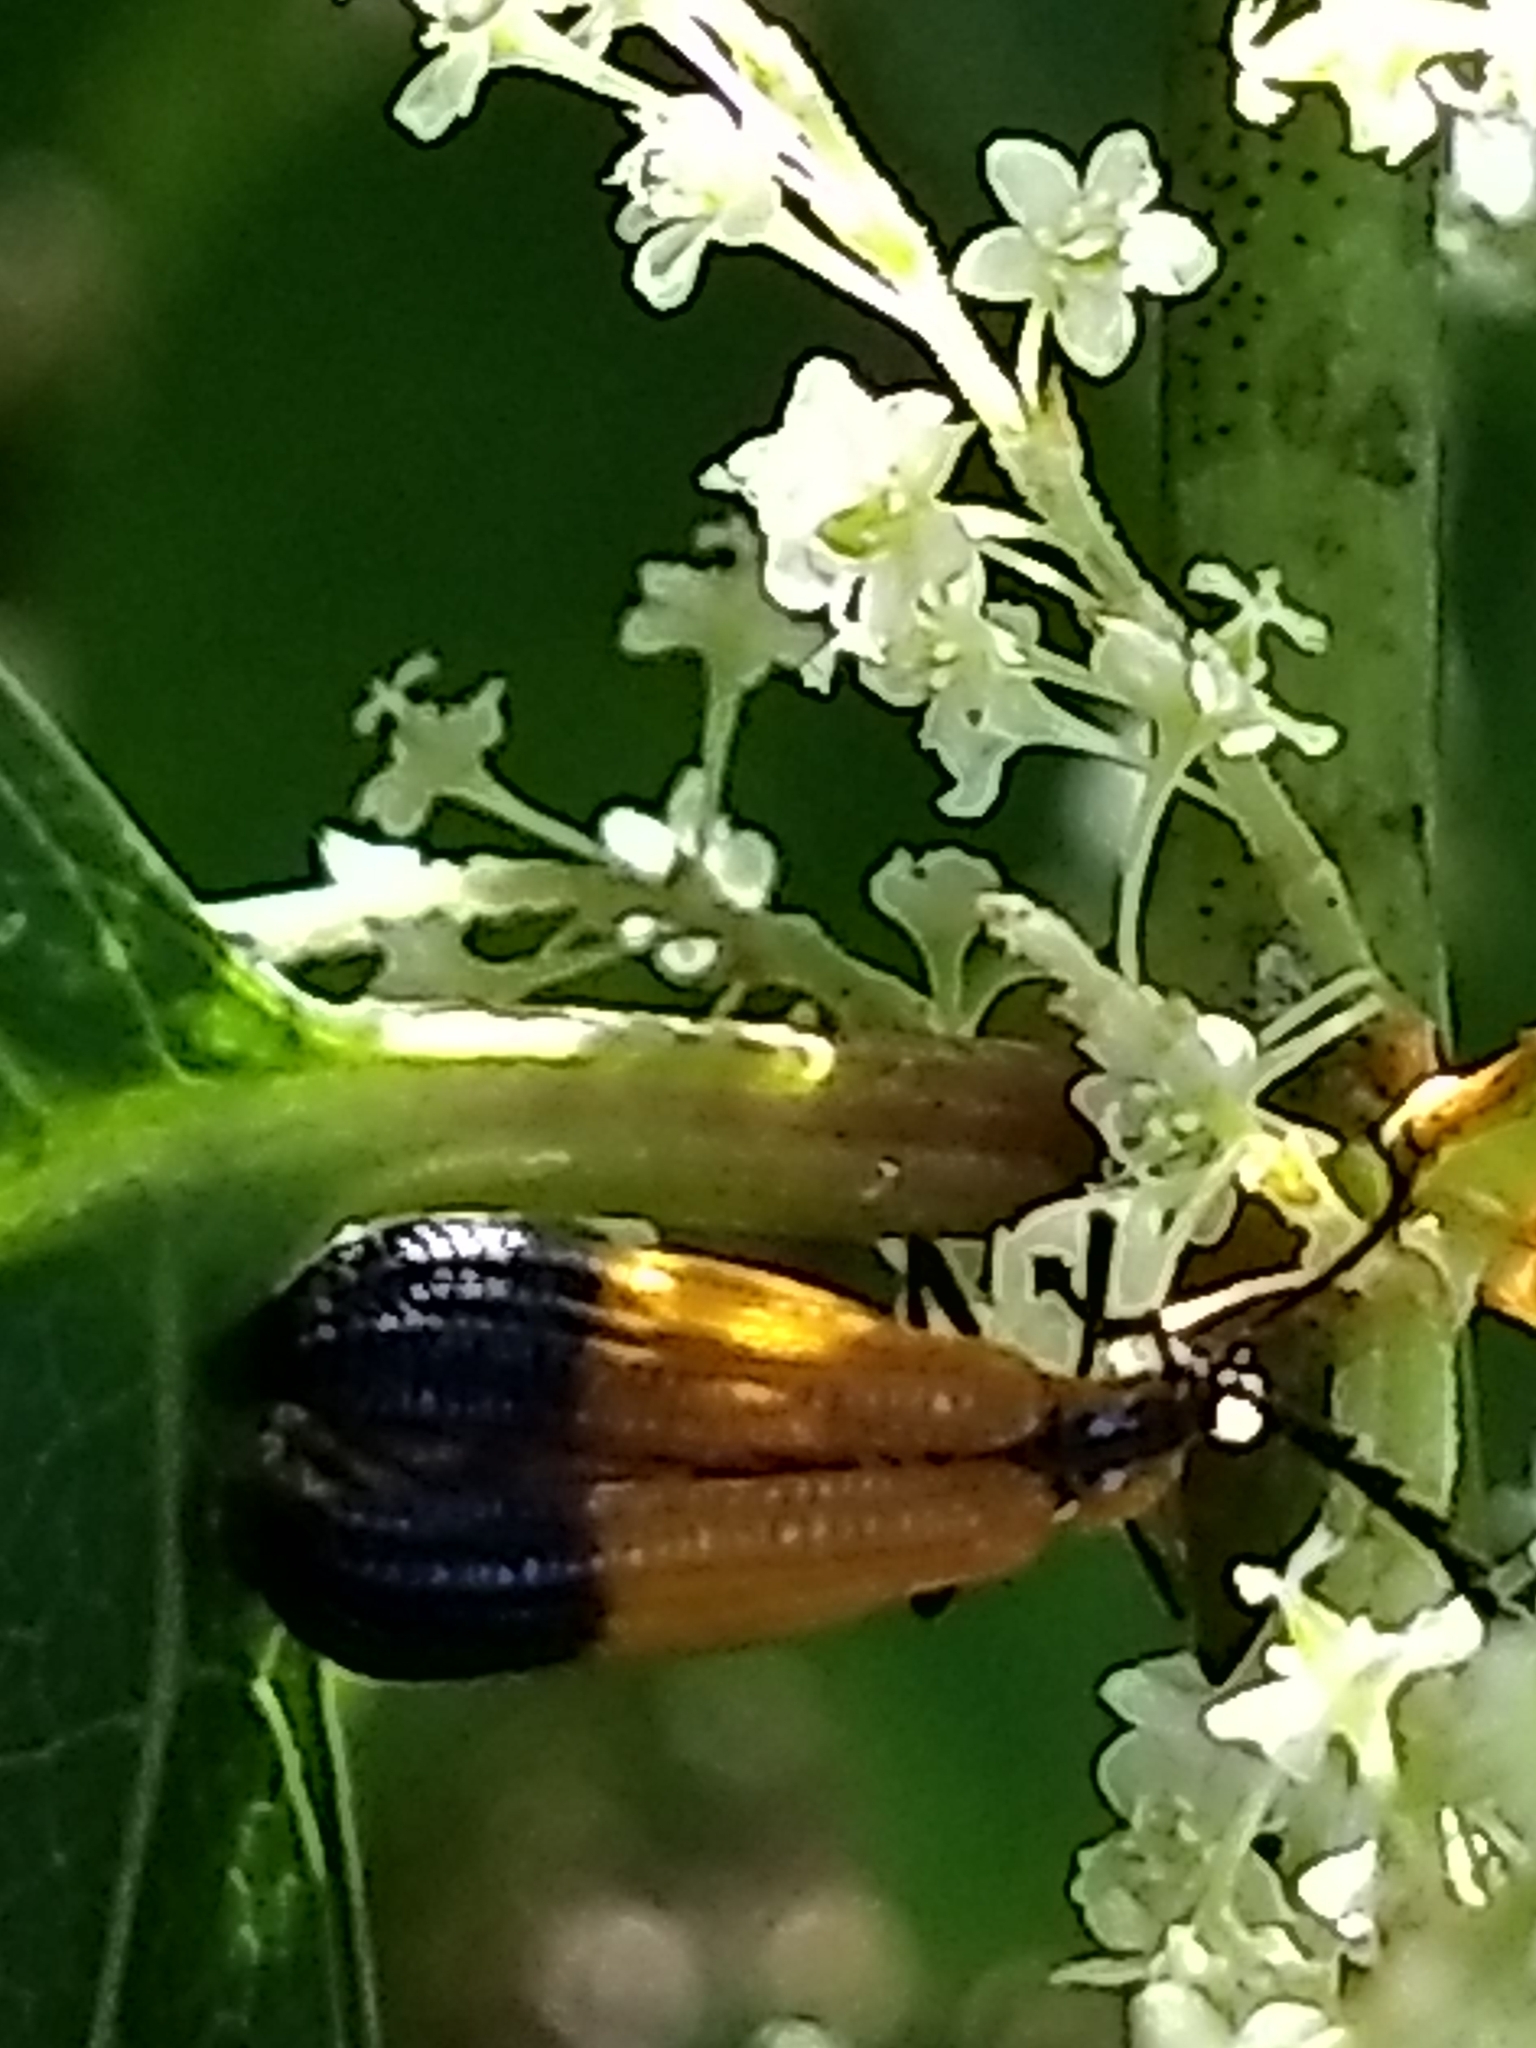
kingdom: Animalia
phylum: Arthropoda
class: Insecta
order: Coleoptera
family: Lycidae
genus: Calopteron
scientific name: Calopteron terminale
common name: End band net-winged beetle
